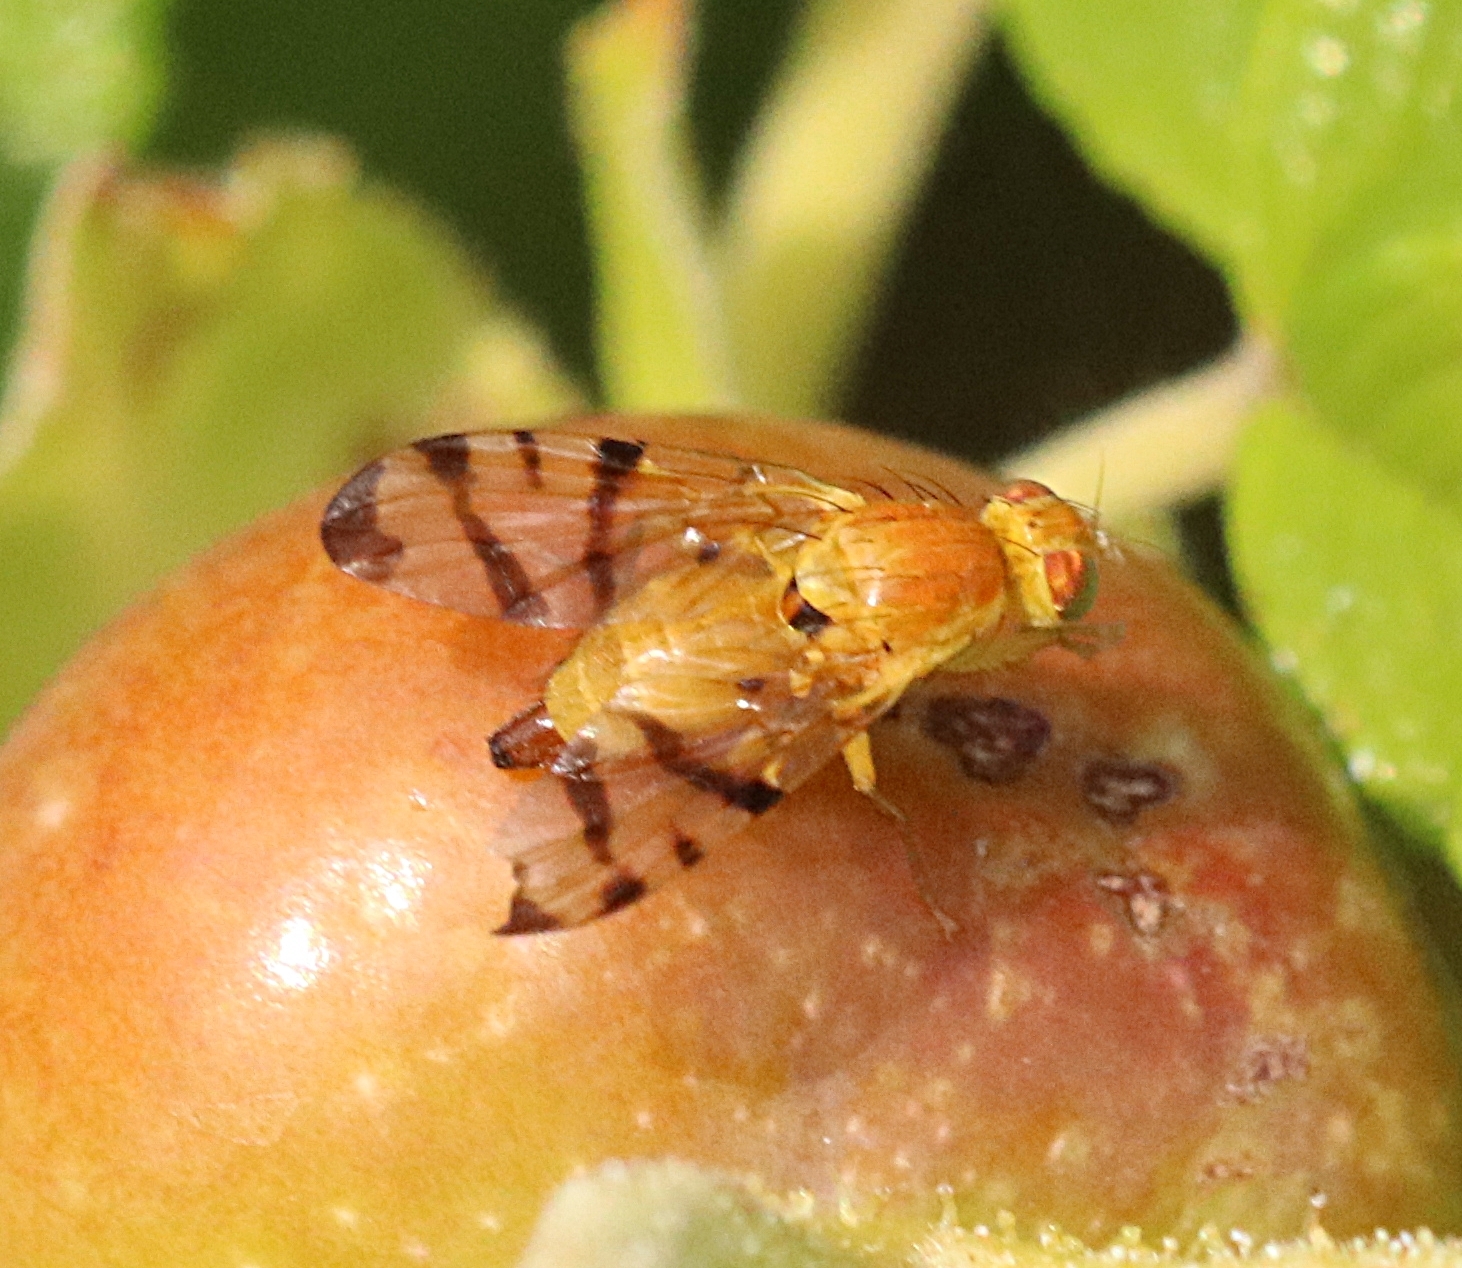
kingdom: Animalia
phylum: Arthropoda
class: Insecta
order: Diptera
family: Tephritidae
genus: Rhagoletis
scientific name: Rhagoletis alternata
